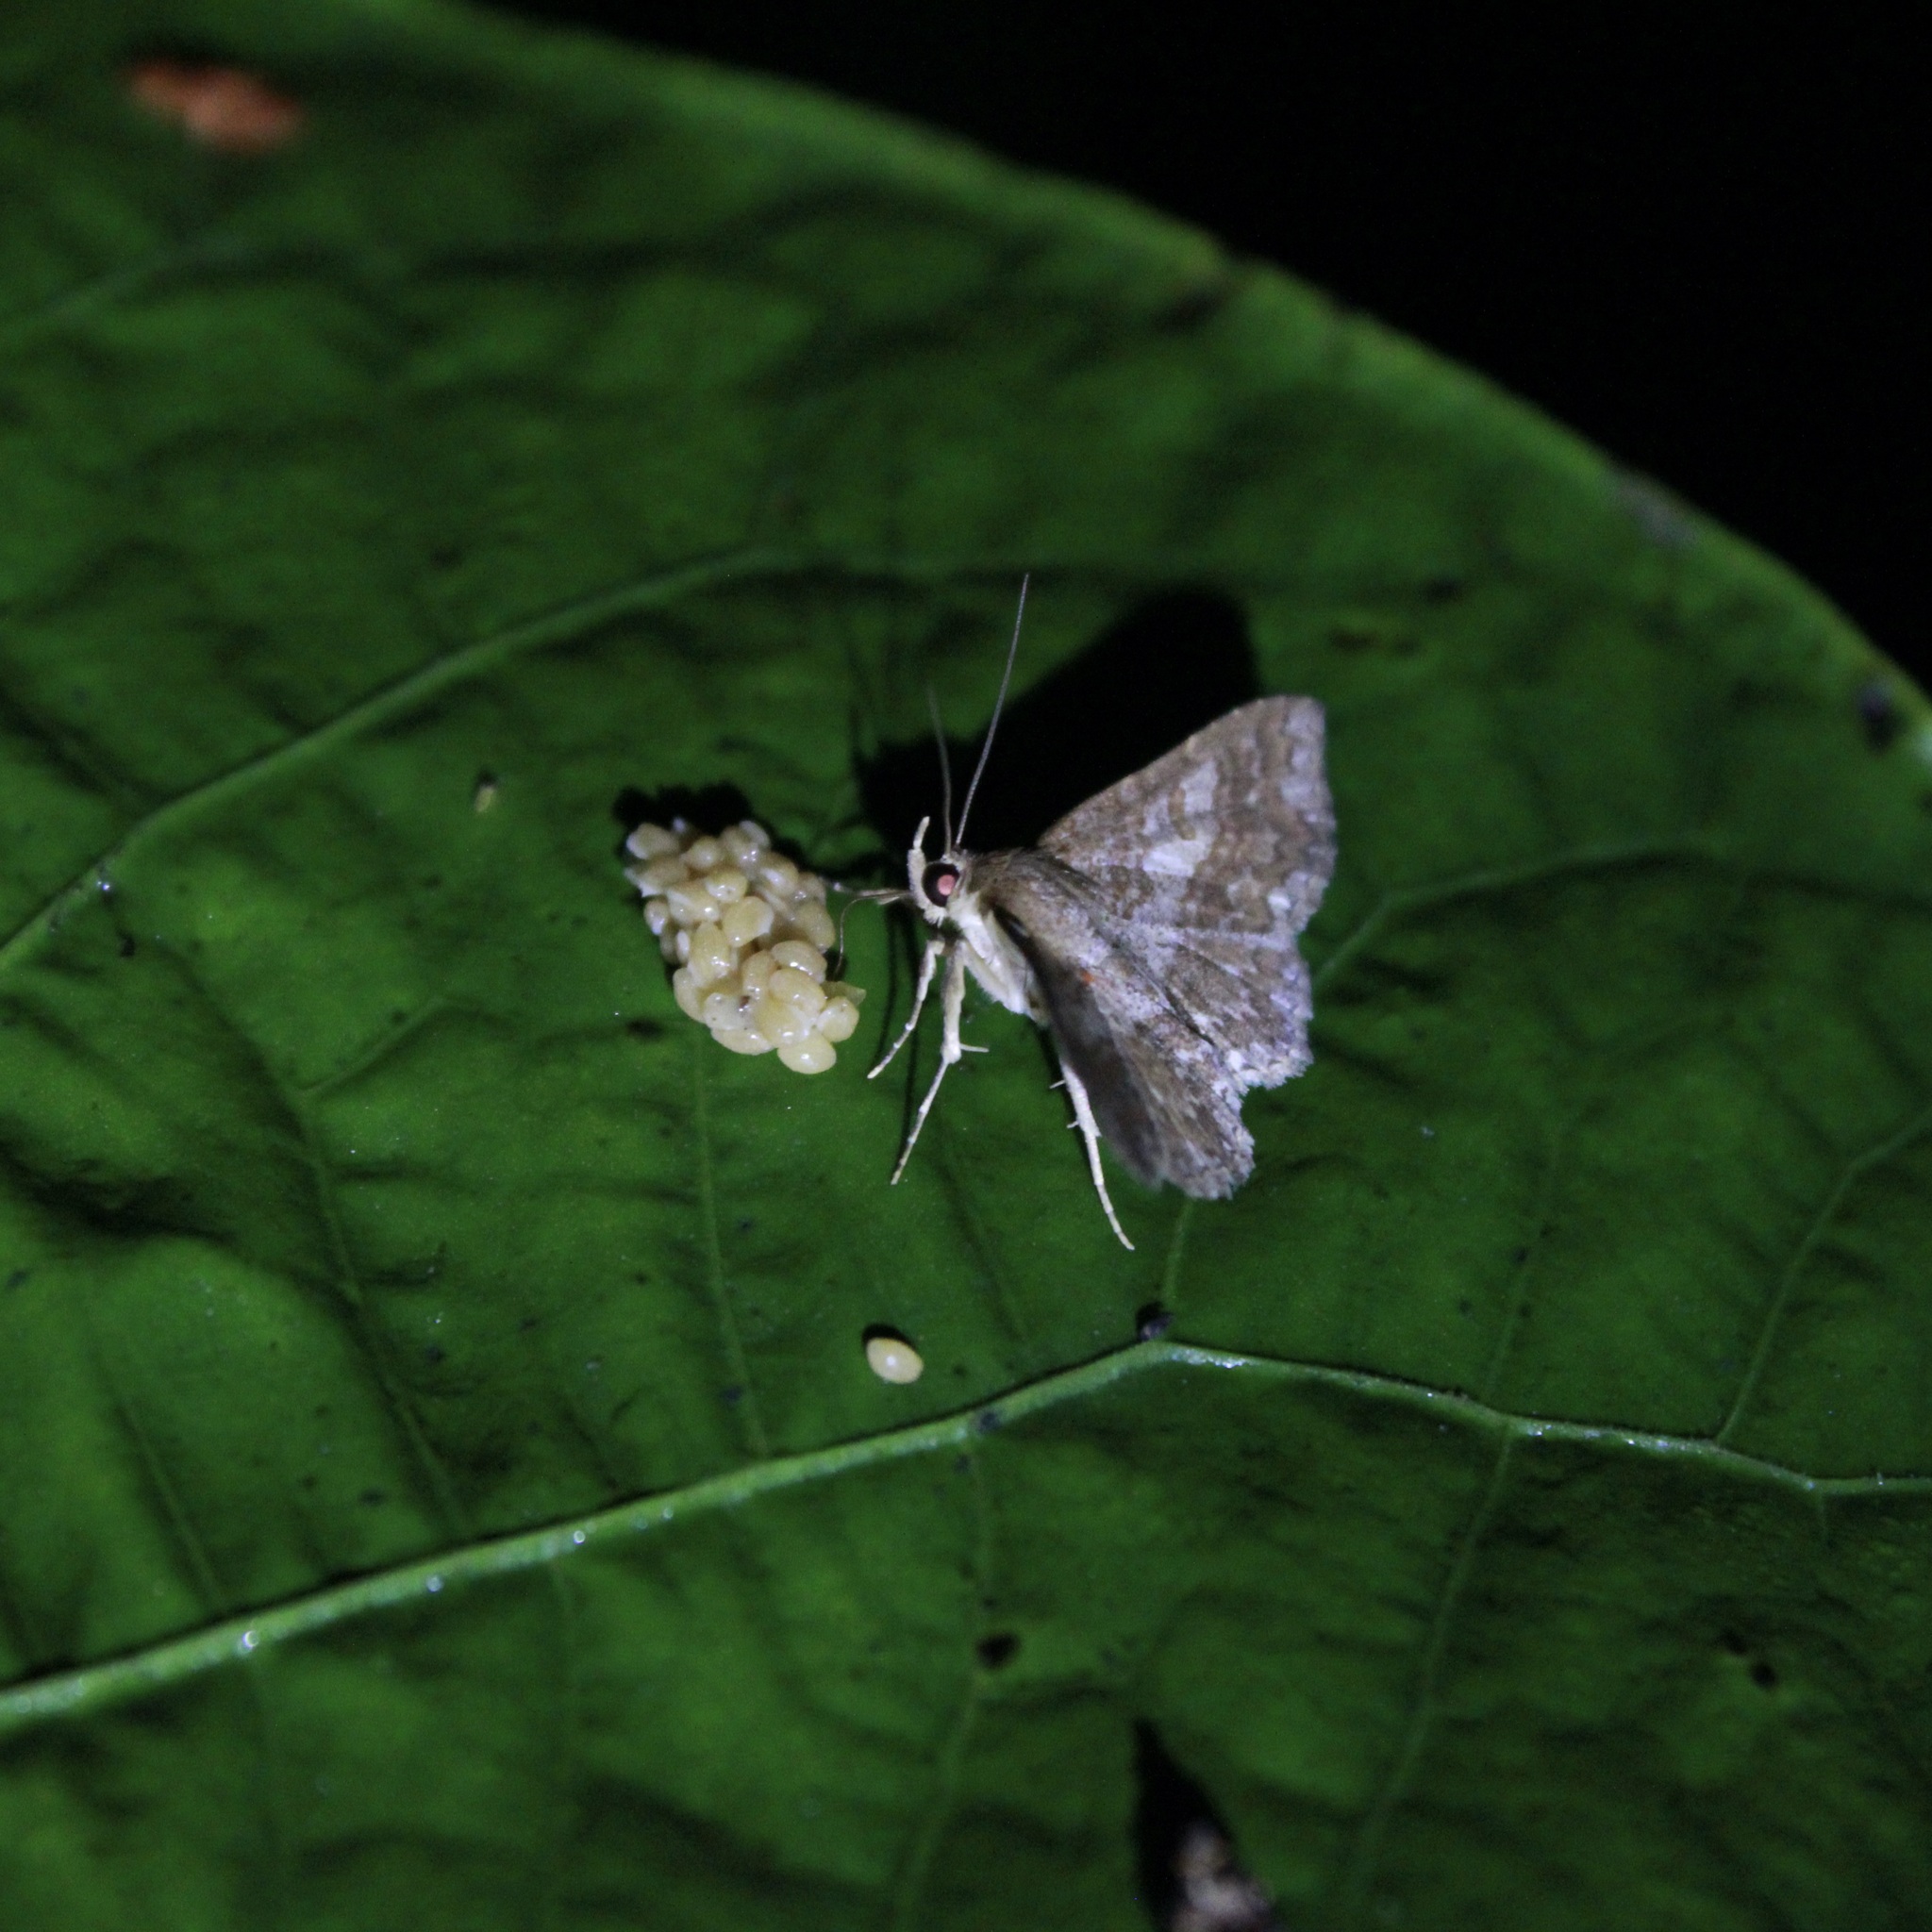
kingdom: Animalia
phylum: Arthropoda
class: Insecta
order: Lepidoptera
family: Erebidae
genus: Antiblemma
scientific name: Antiblemma nitidaria
